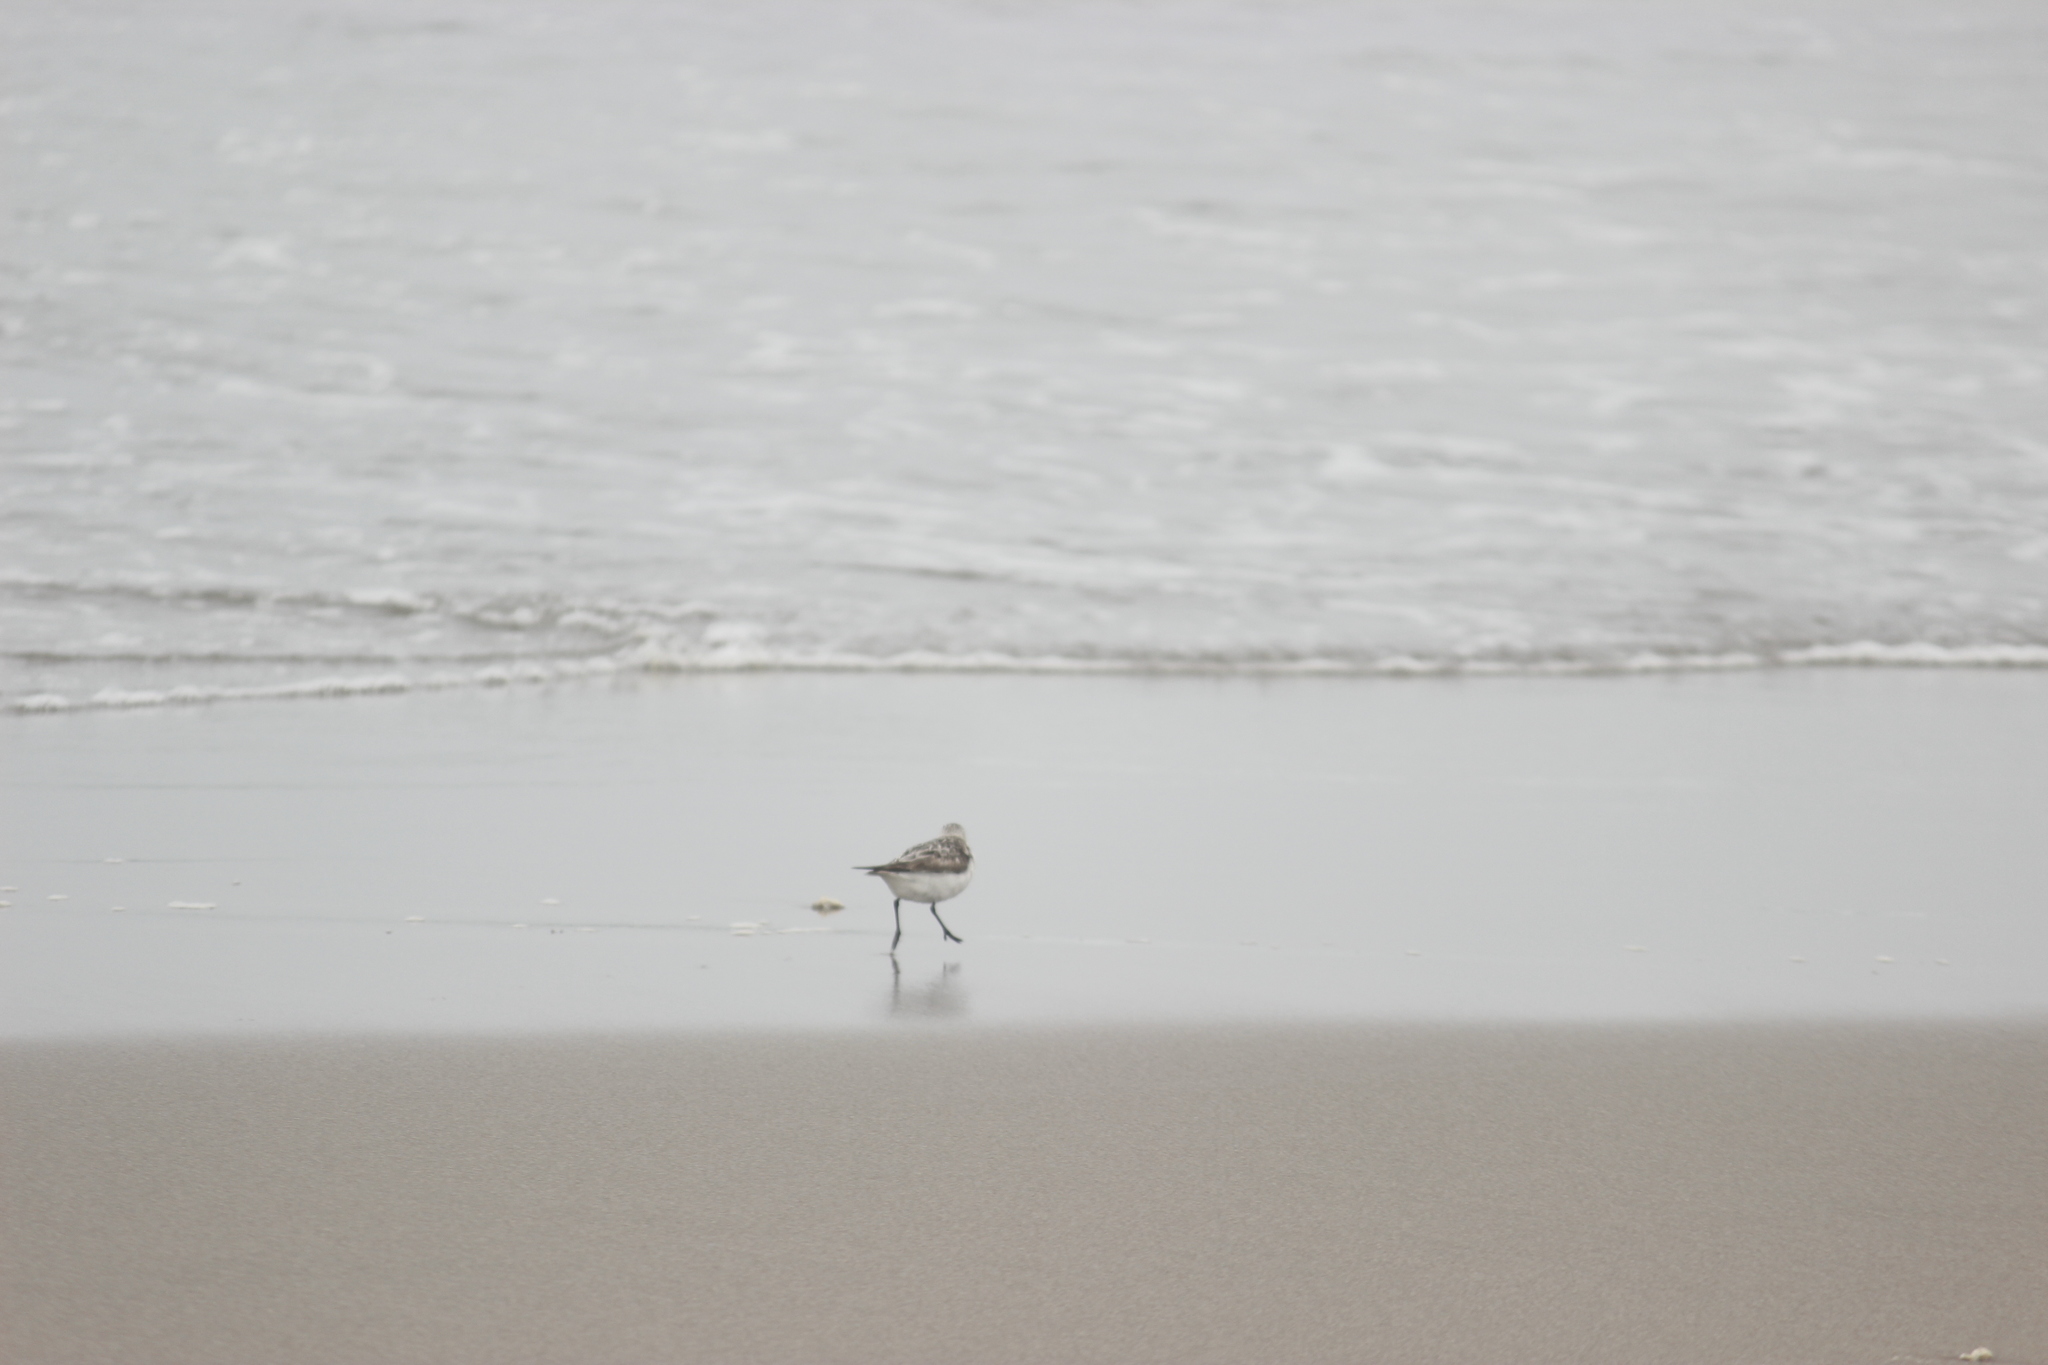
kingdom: Animalia
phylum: Chordata
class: Aves
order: Charadriiformes
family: Scolopacidae
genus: Calidris
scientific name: Calidris alba
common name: Sanderling
